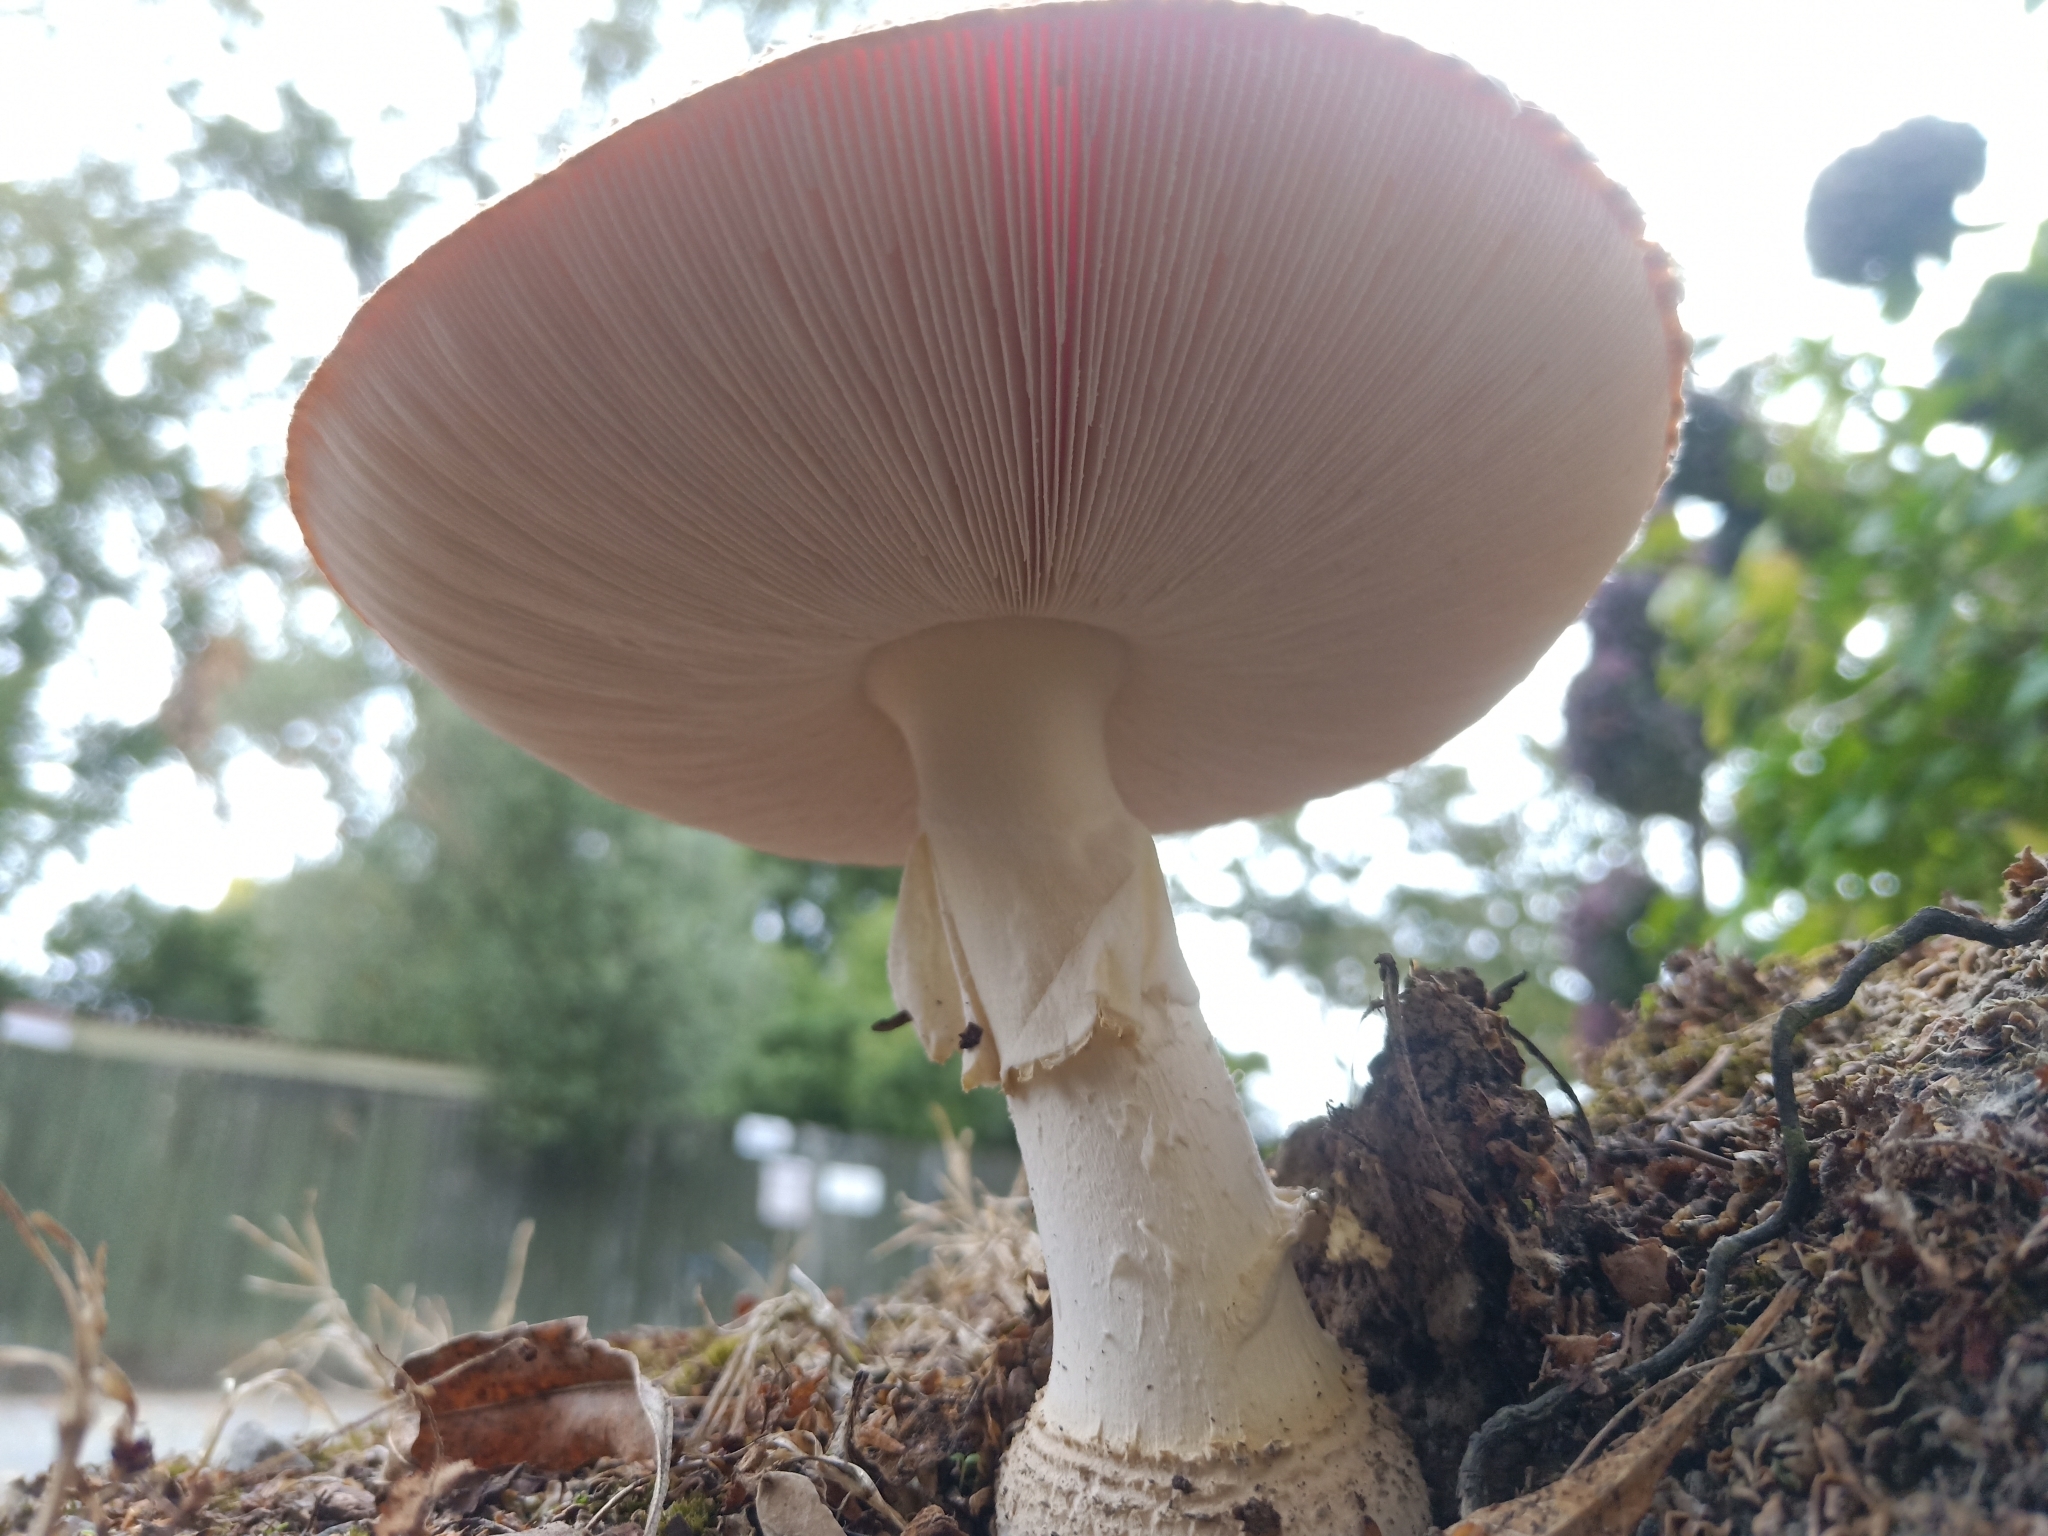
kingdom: Fungi
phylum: Basidiomycota
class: Agaricomycetes
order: Agaricales
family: Amanitaceae
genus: Amanita
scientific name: Amanita muscaria
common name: Fly agaric
